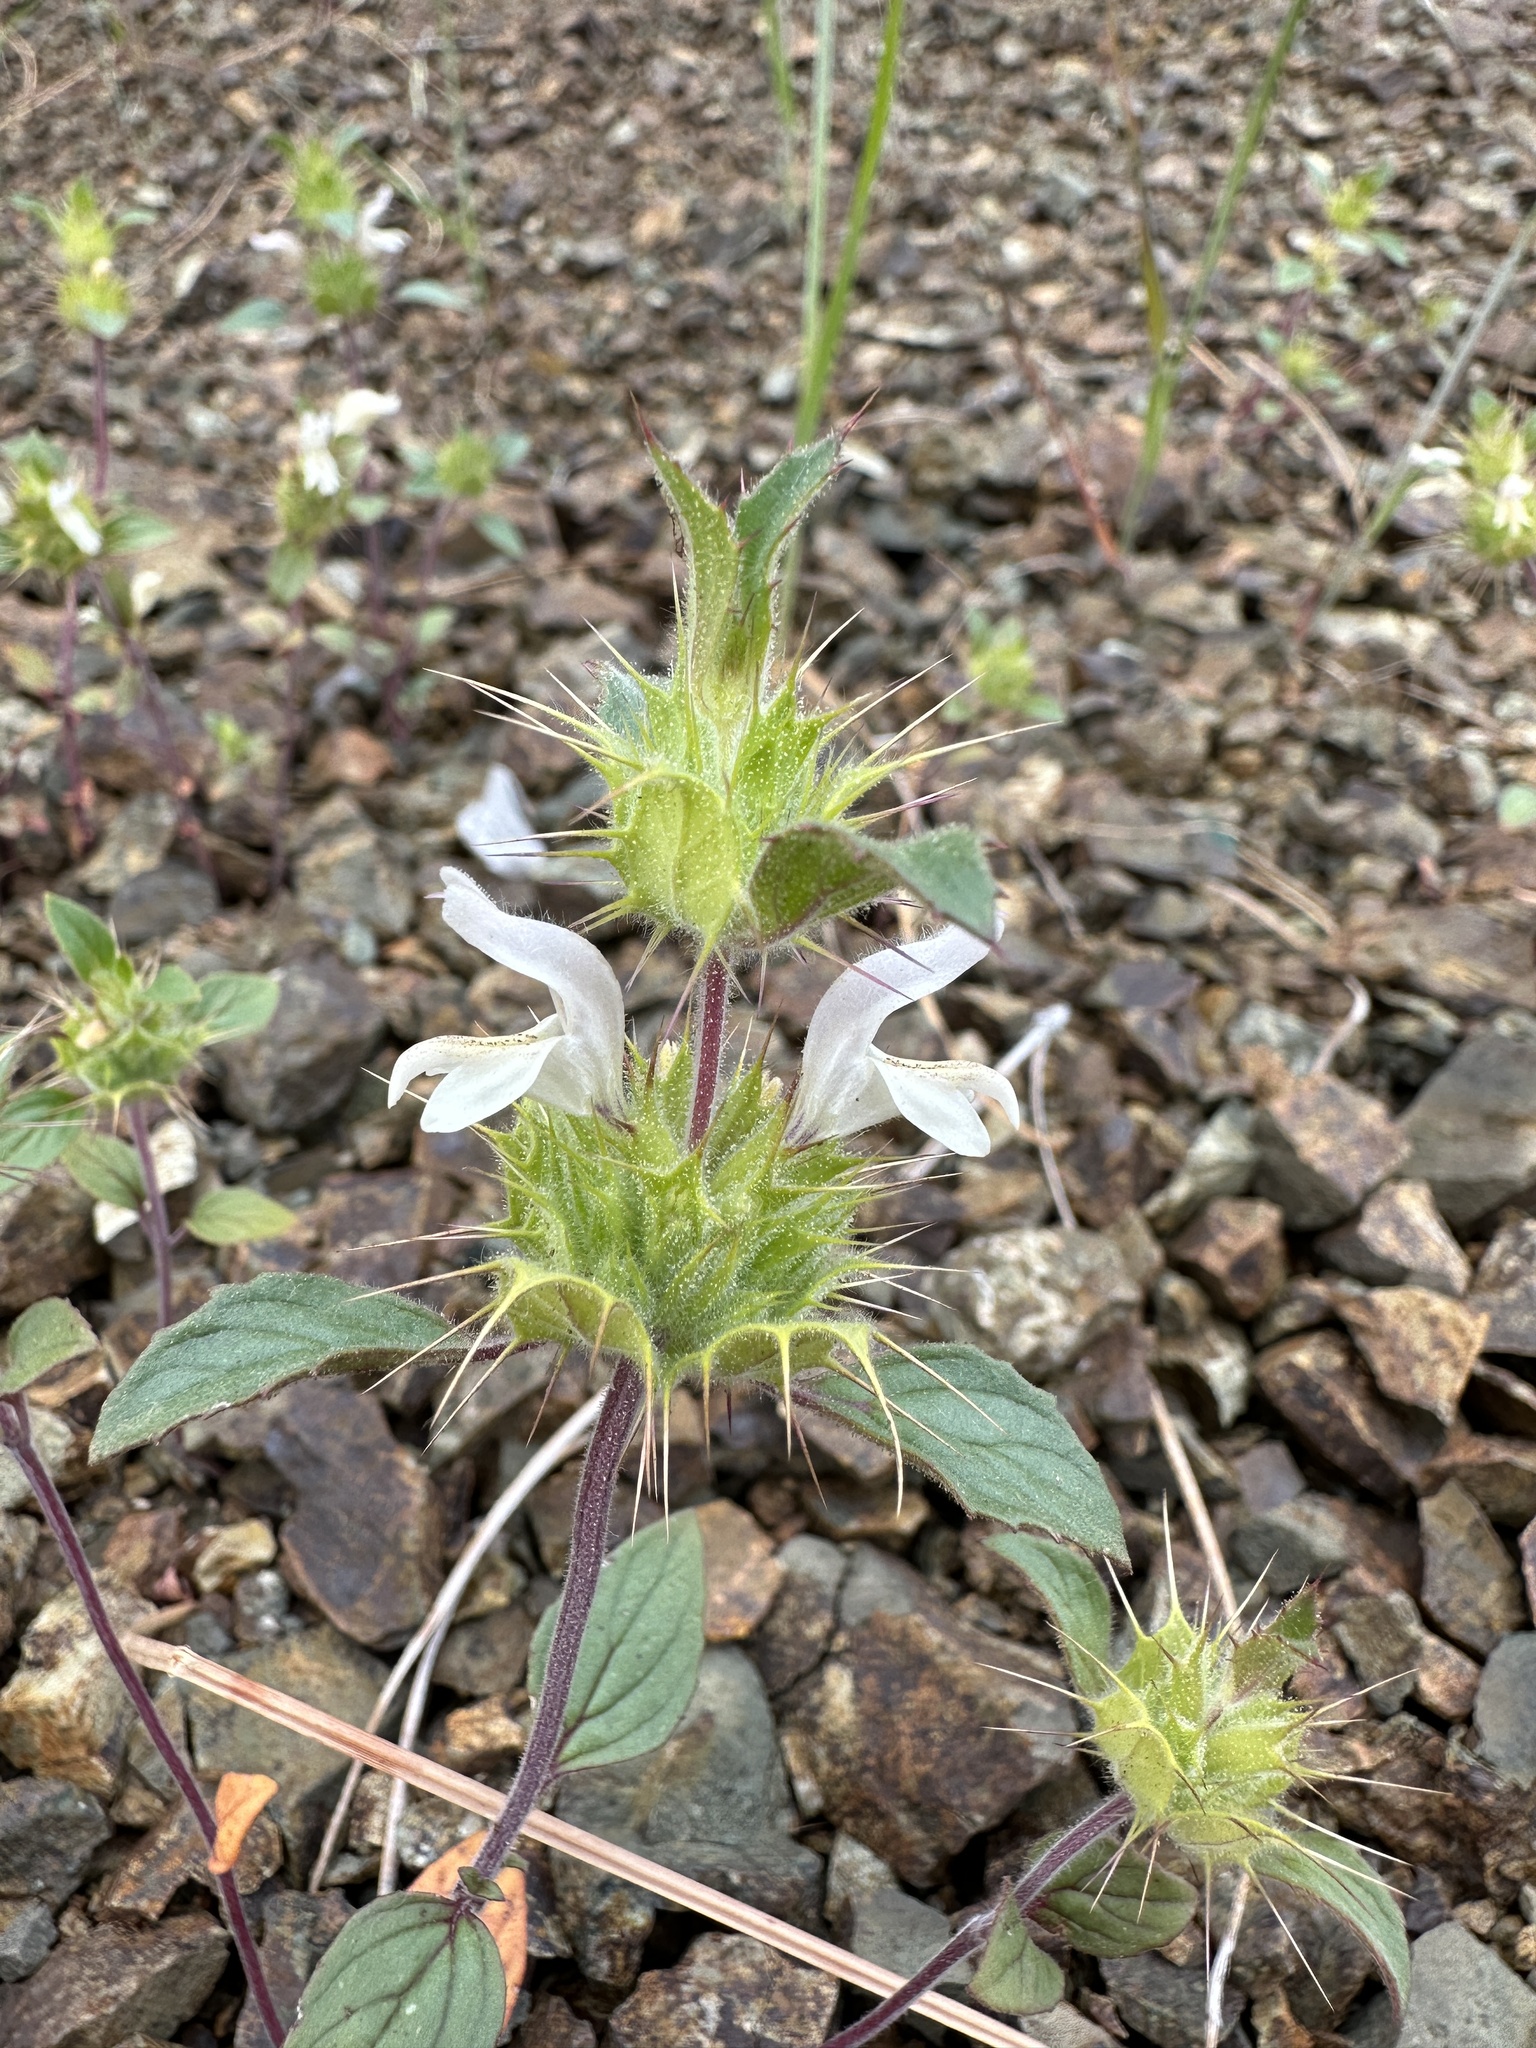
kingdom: Plantae
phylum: Tracheophyta
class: Magnoliopsida
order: Lamiales
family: Lamiaceae
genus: Acanthomintha
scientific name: Acanthomintha lanceolata
